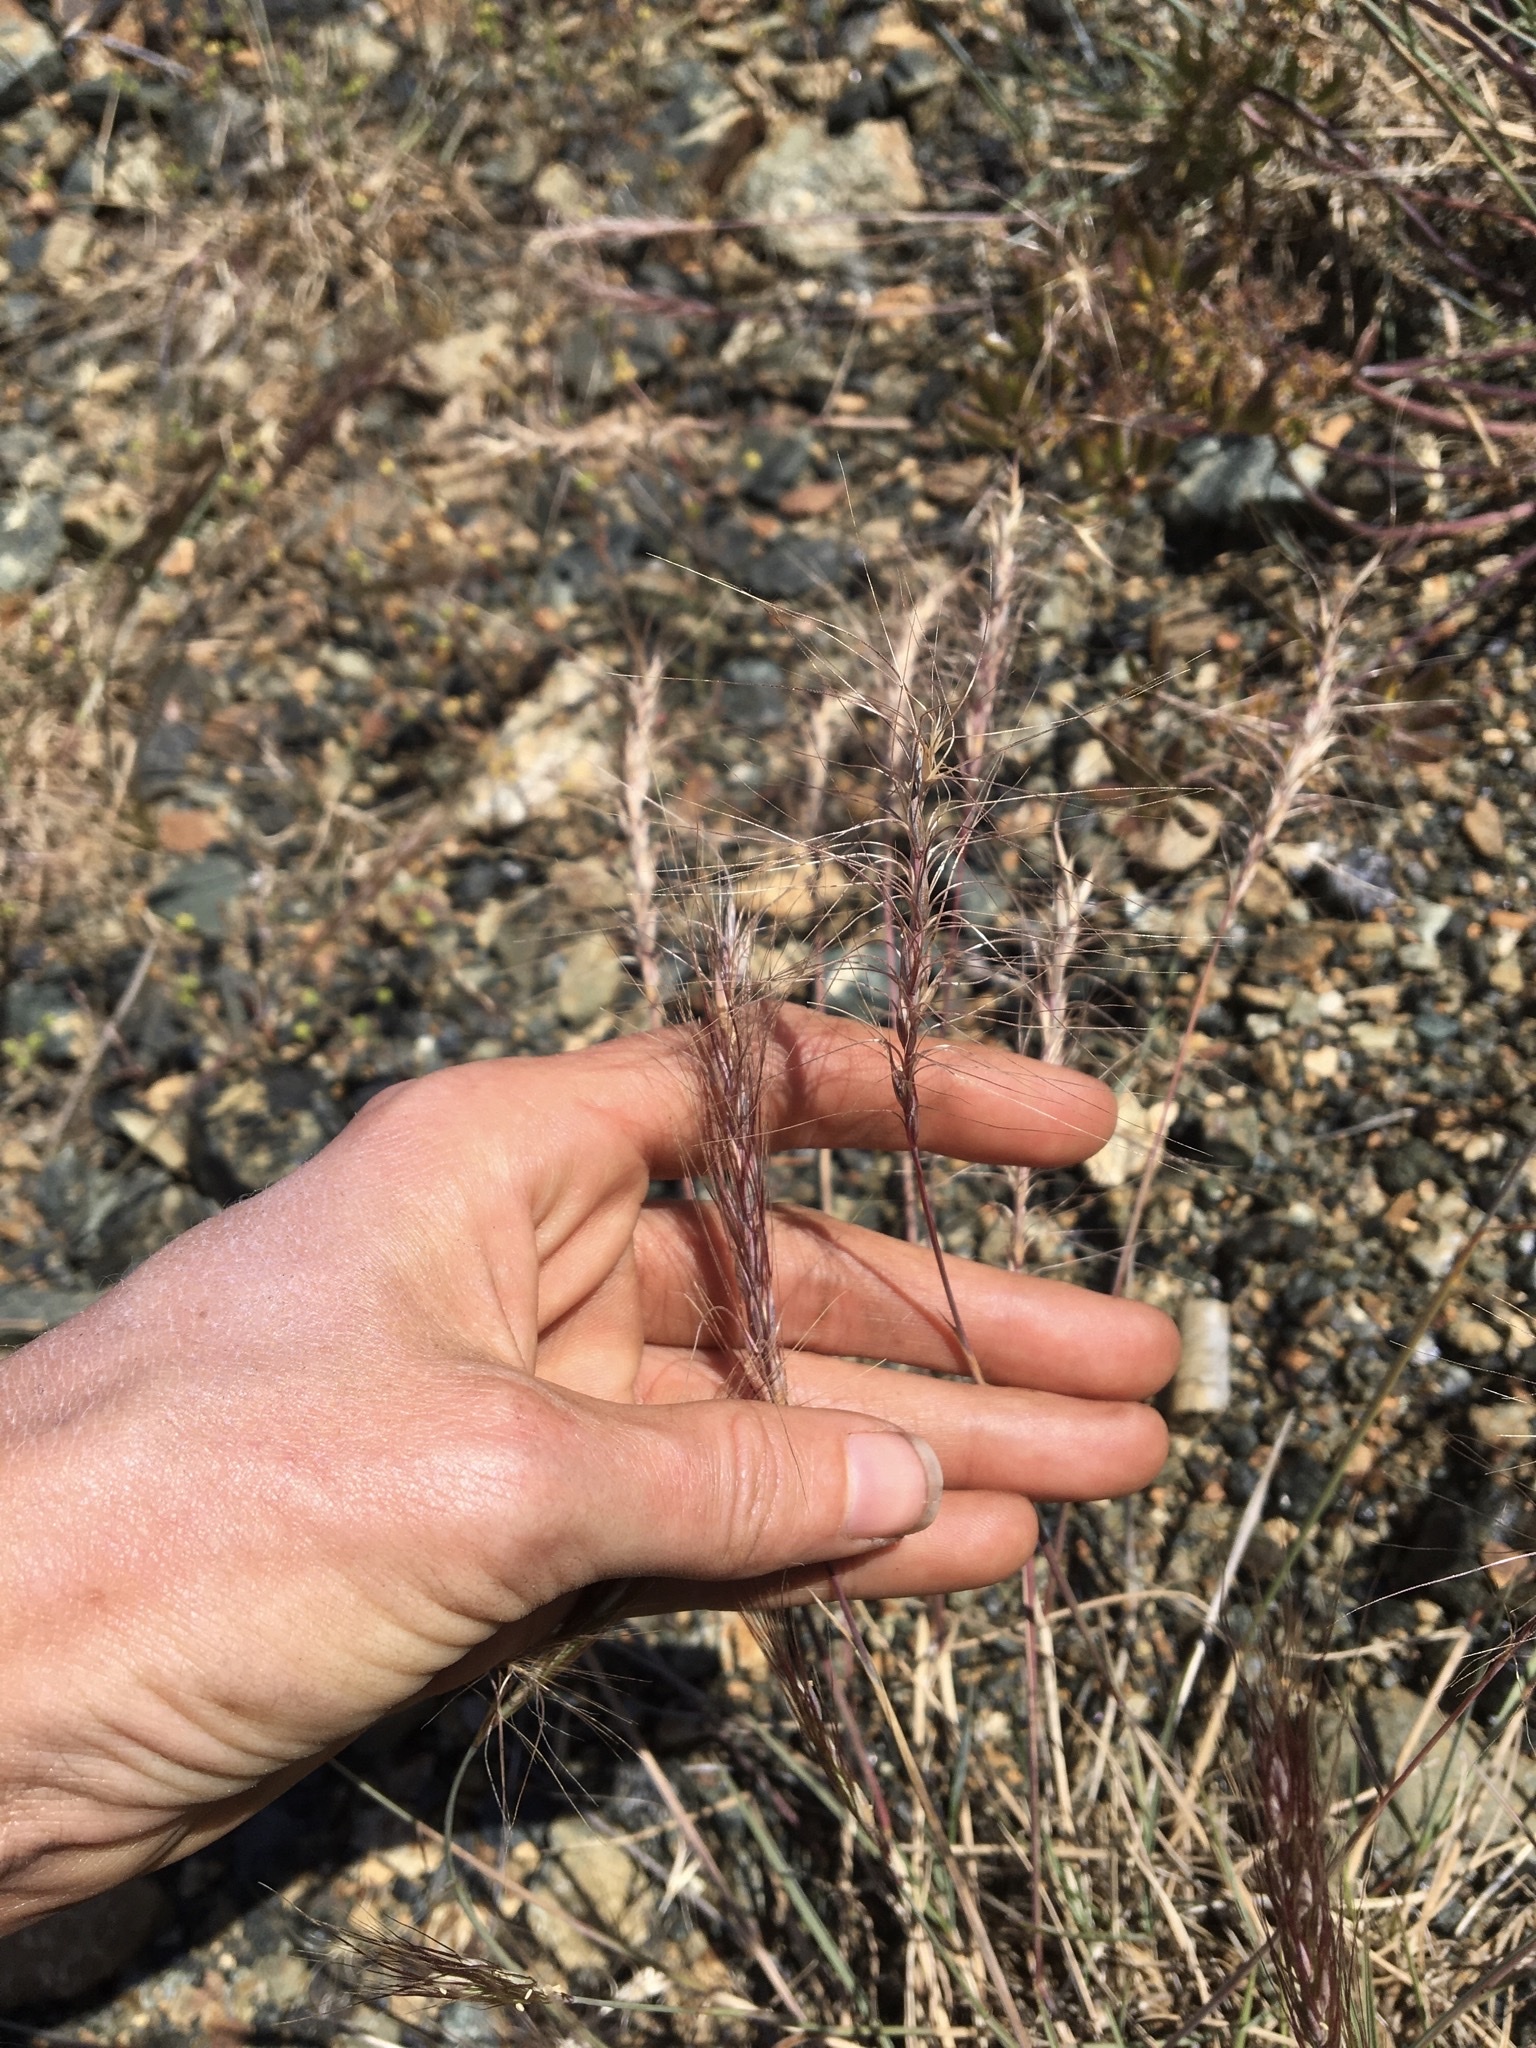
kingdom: Plantae
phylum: Tracheophyta
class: Liliopsida
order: Poales
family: Poaceae
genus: Elymus
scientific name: Elymus elymoides
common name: Bottlebrush squirreltail
